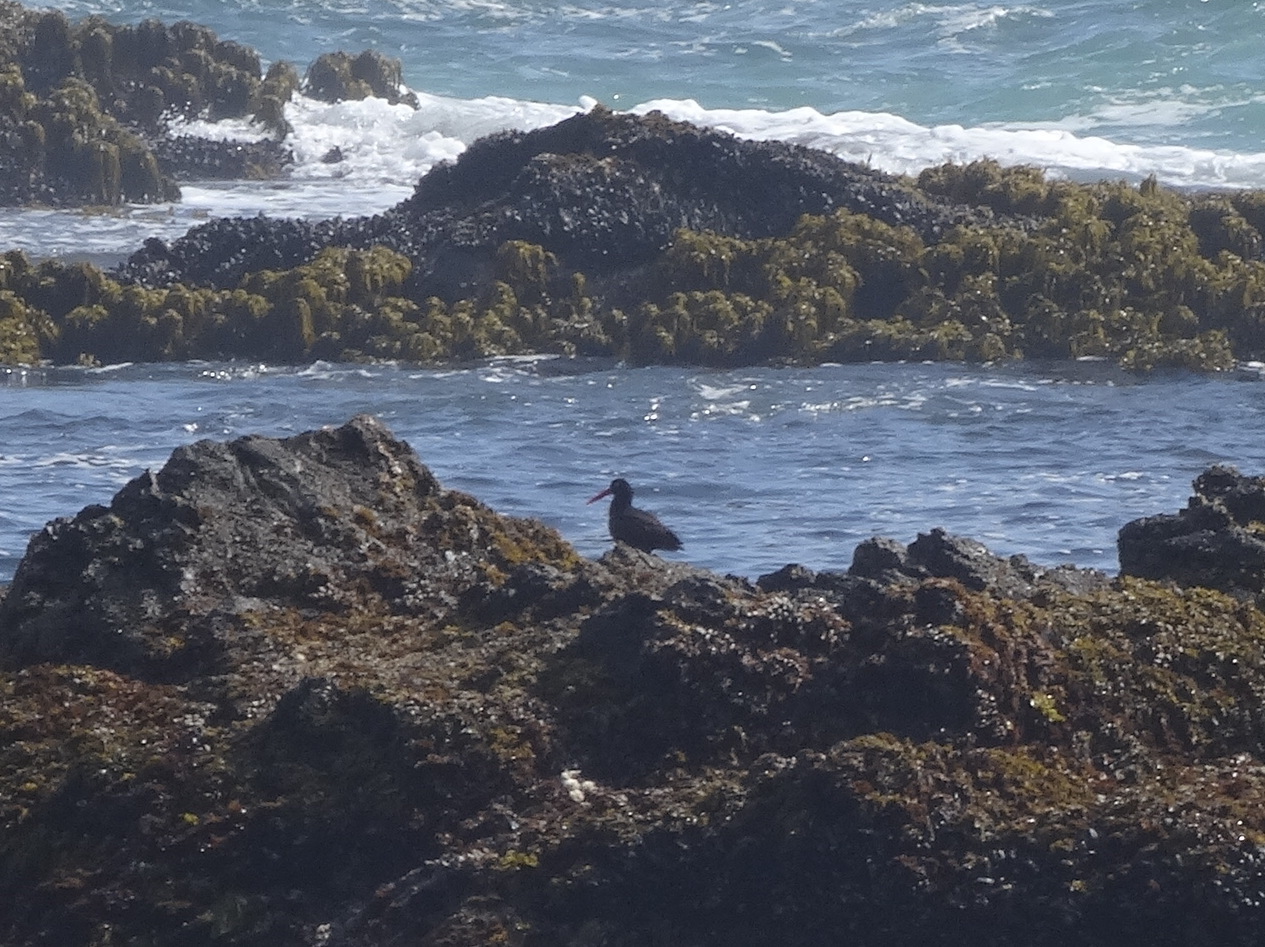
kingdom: Animalia
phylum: Chordata
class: Aves
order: Charadriiformes
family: Haematopodidae
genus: Haematopus
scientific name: Haematopus bachmani
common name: Black oystercatcher
